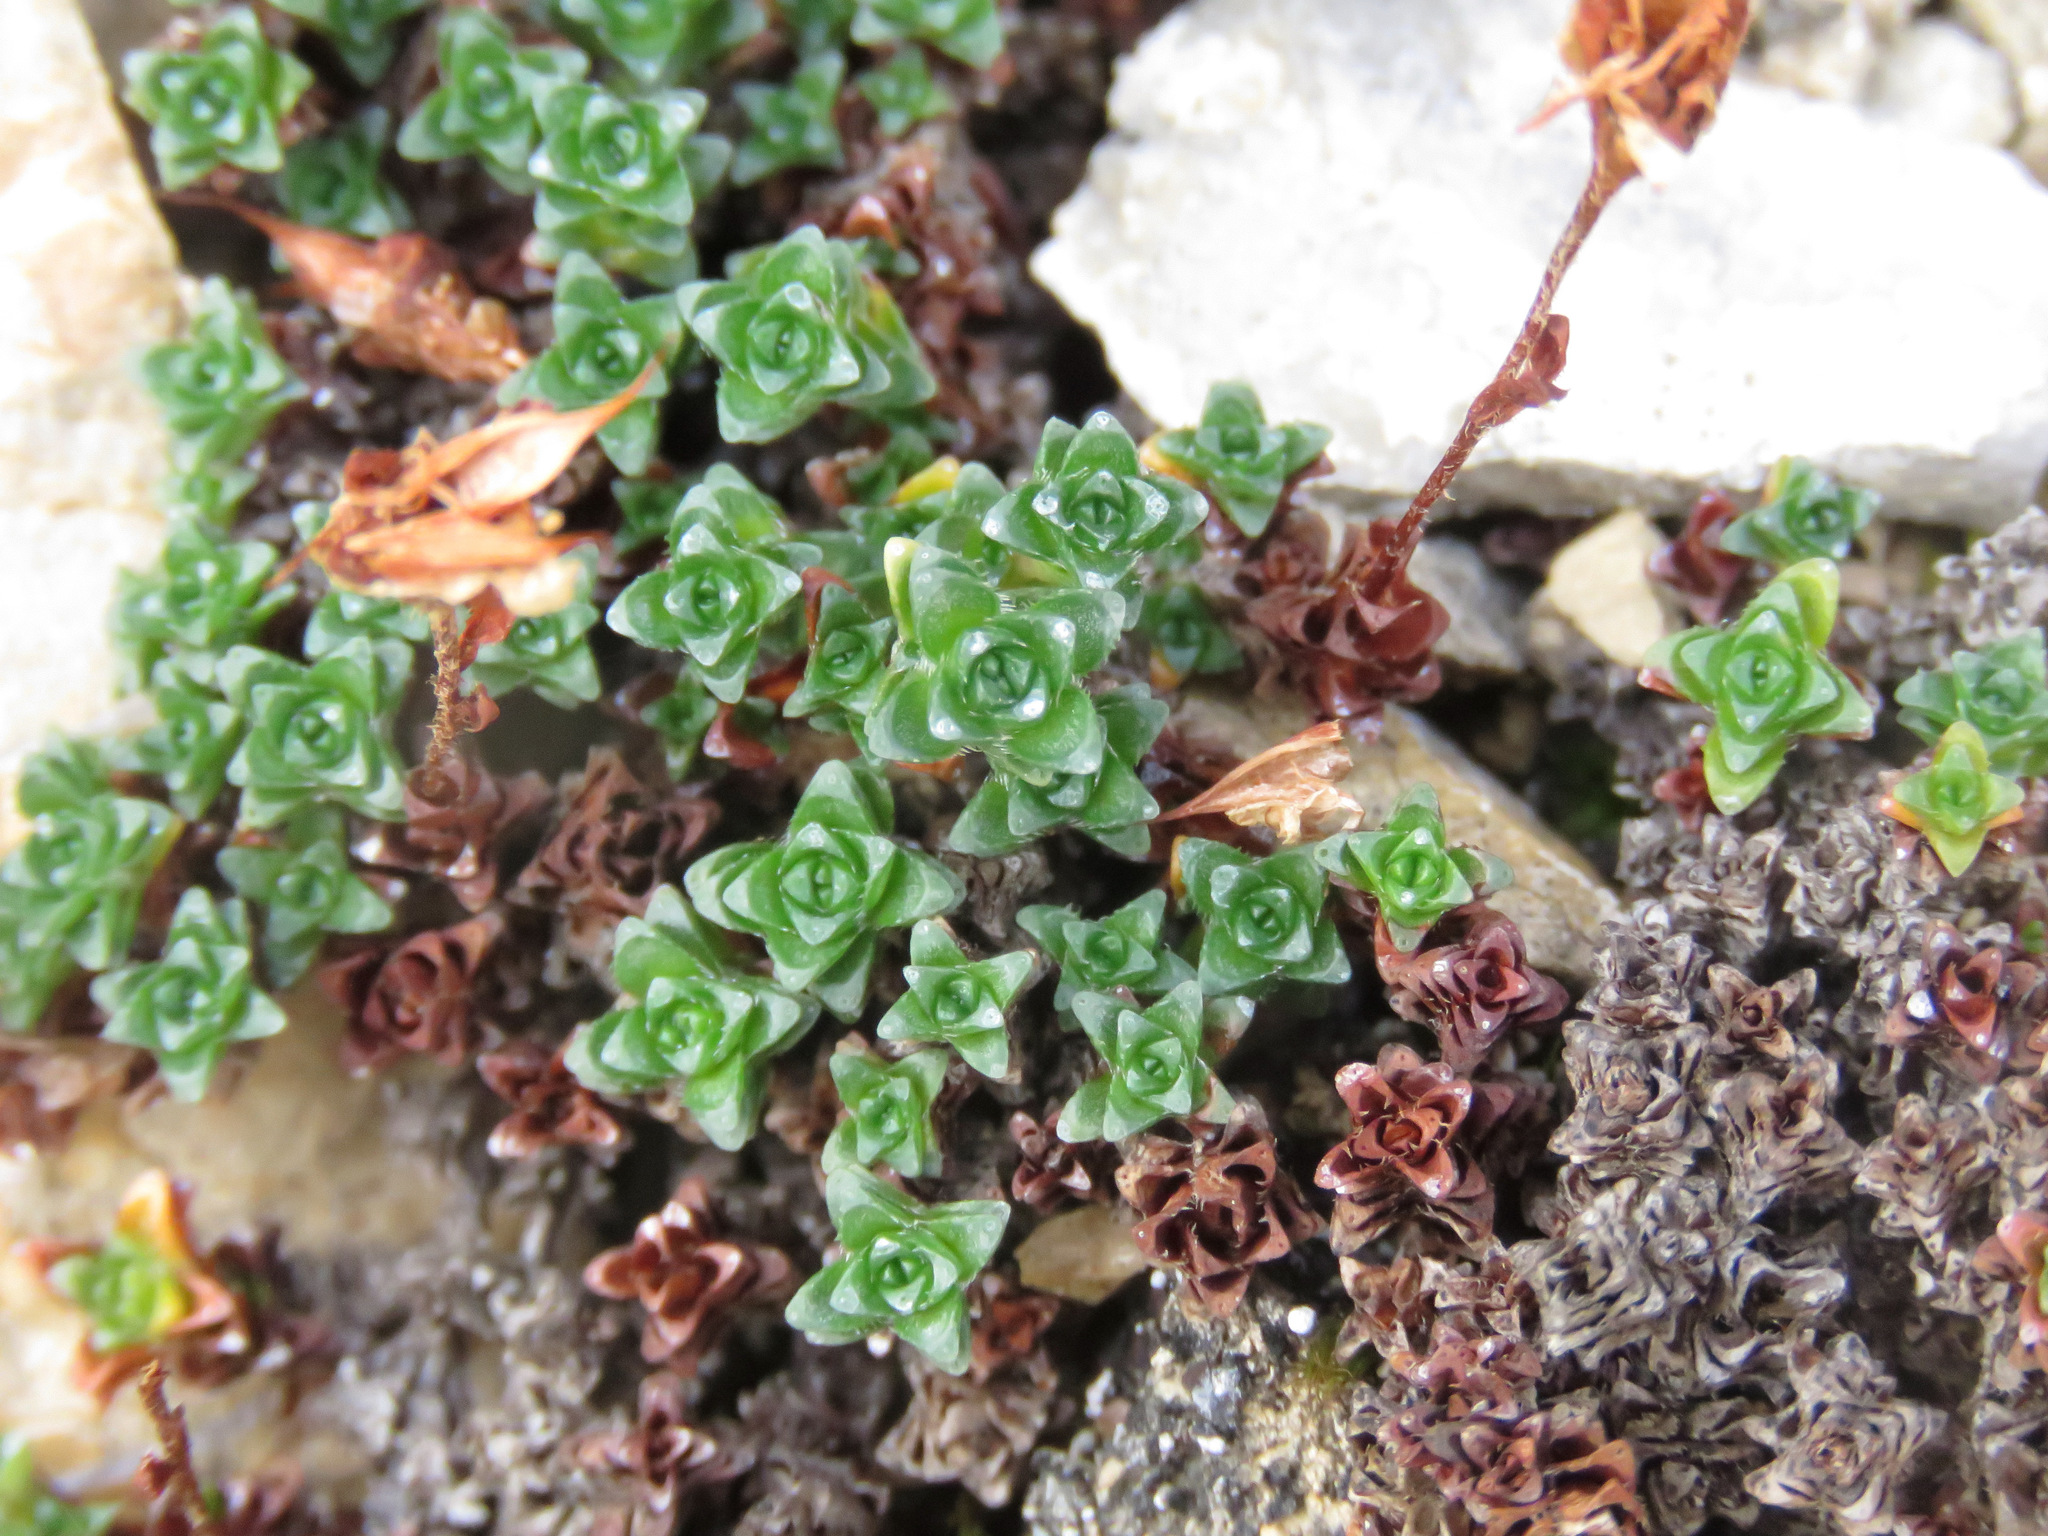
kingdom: Plantae
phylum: Tracheophyta
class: Magnoliopsida
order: Saxifragales
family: Saxifragaceae
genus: Saxifraga
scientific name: Saxifraga oppositifolia
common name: Purple saxifrage
